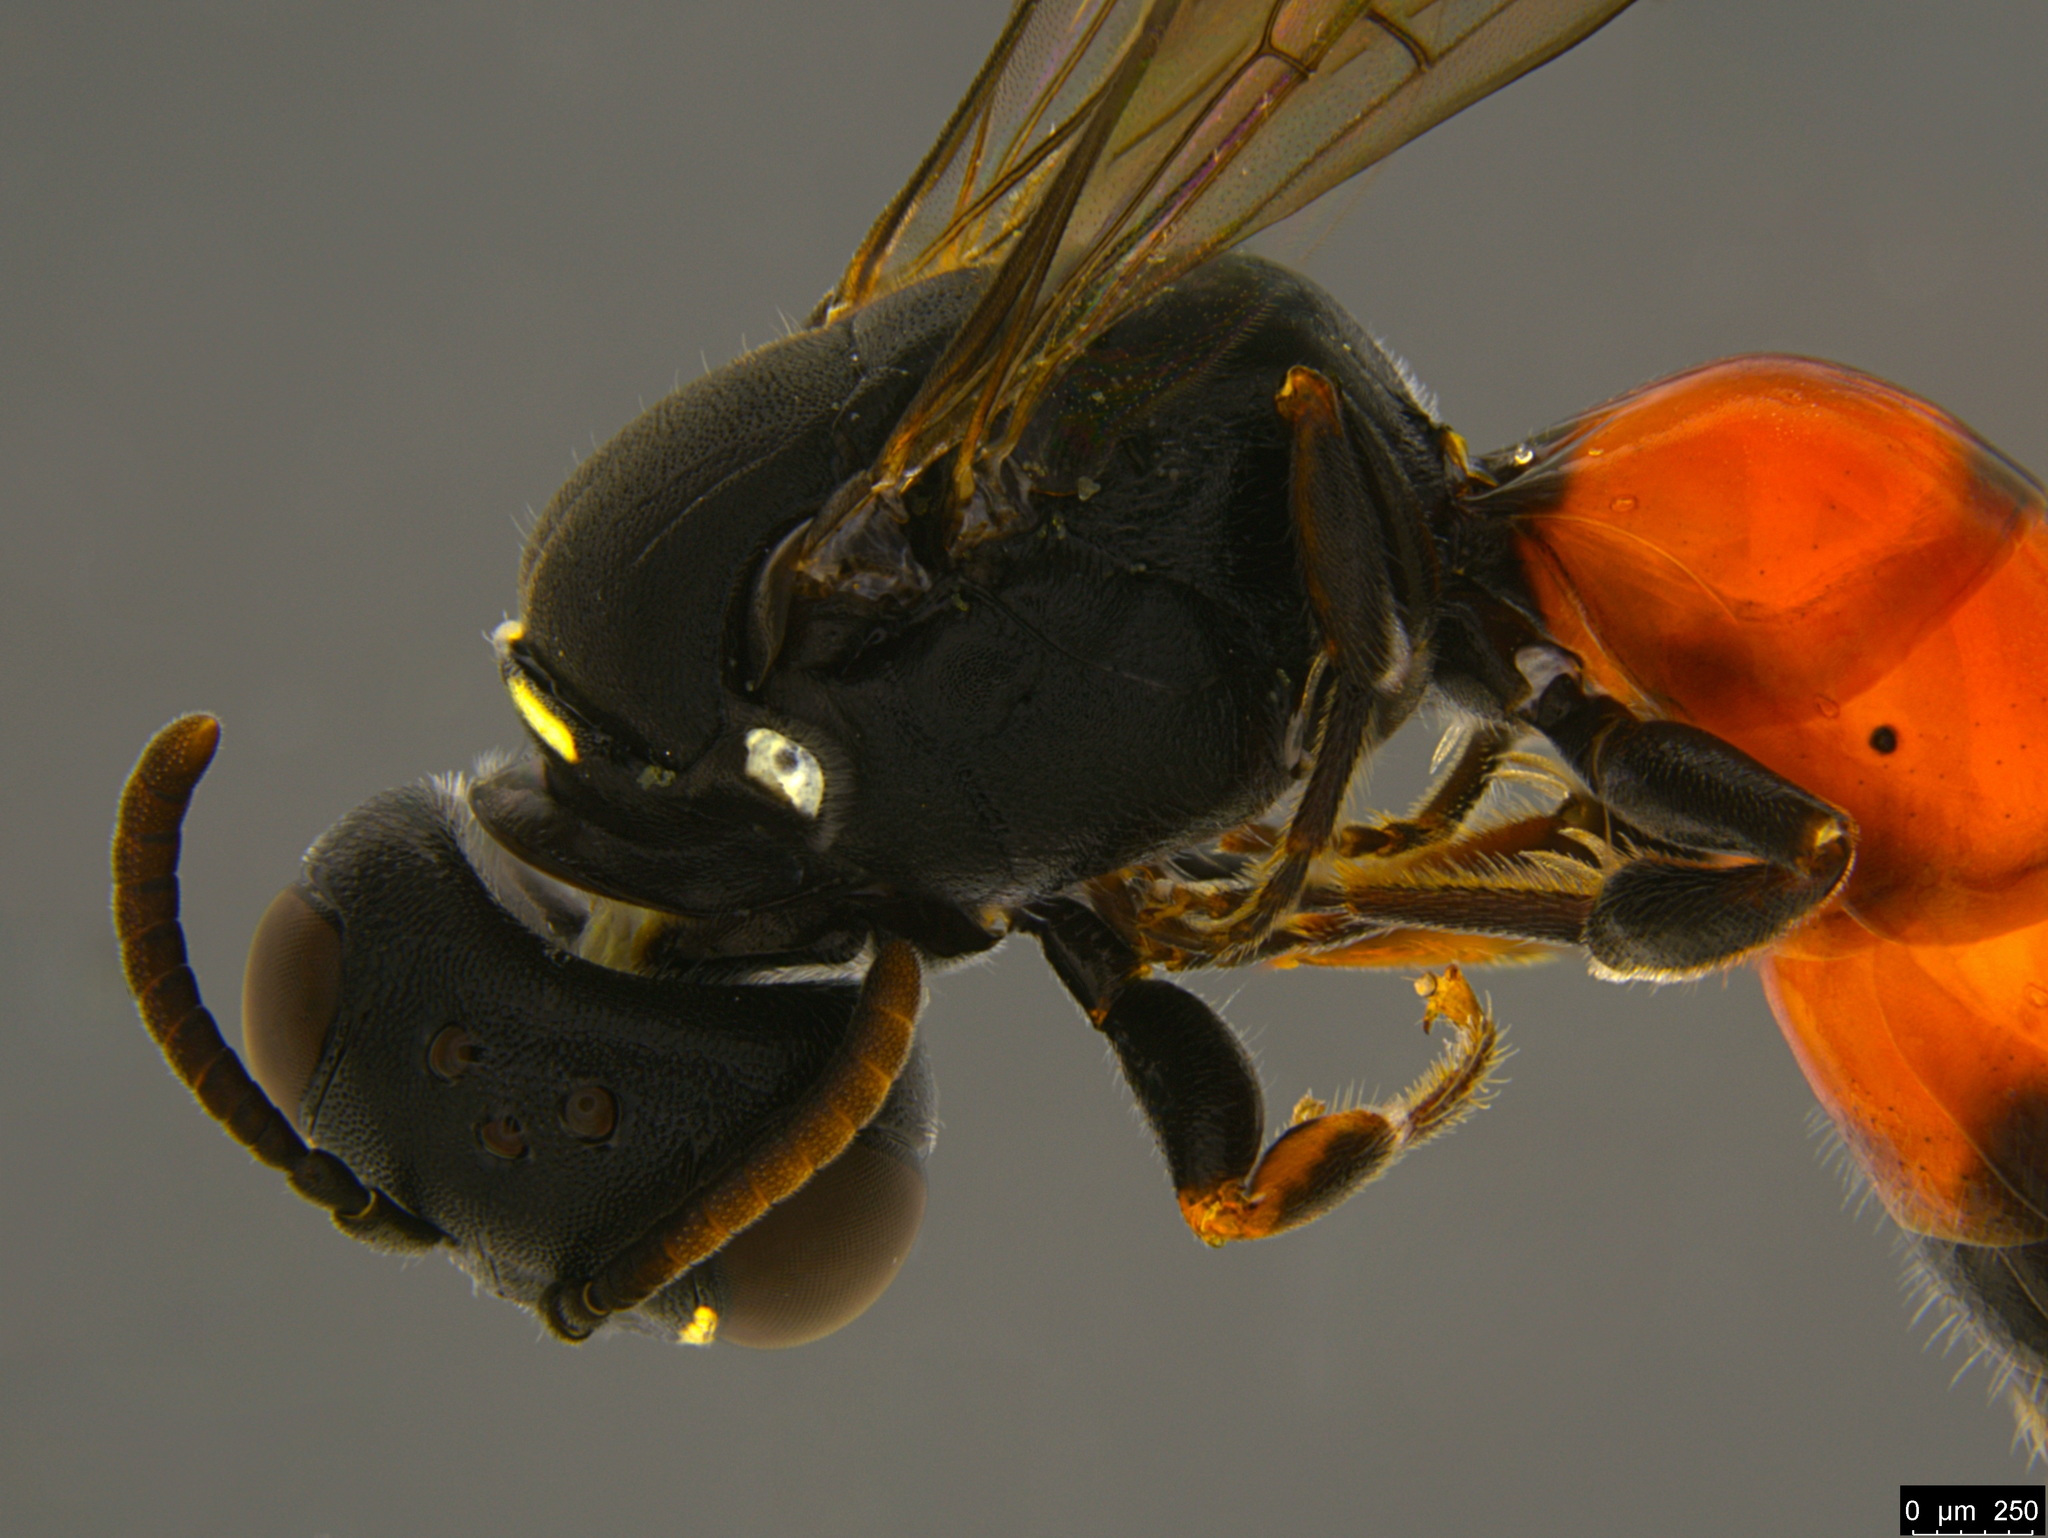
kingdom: Animalia
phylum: Arthropoda
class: Insecta
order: Hymenoptera
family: Colletidae
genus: Hylaeus
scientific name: Hylaeus littleri
